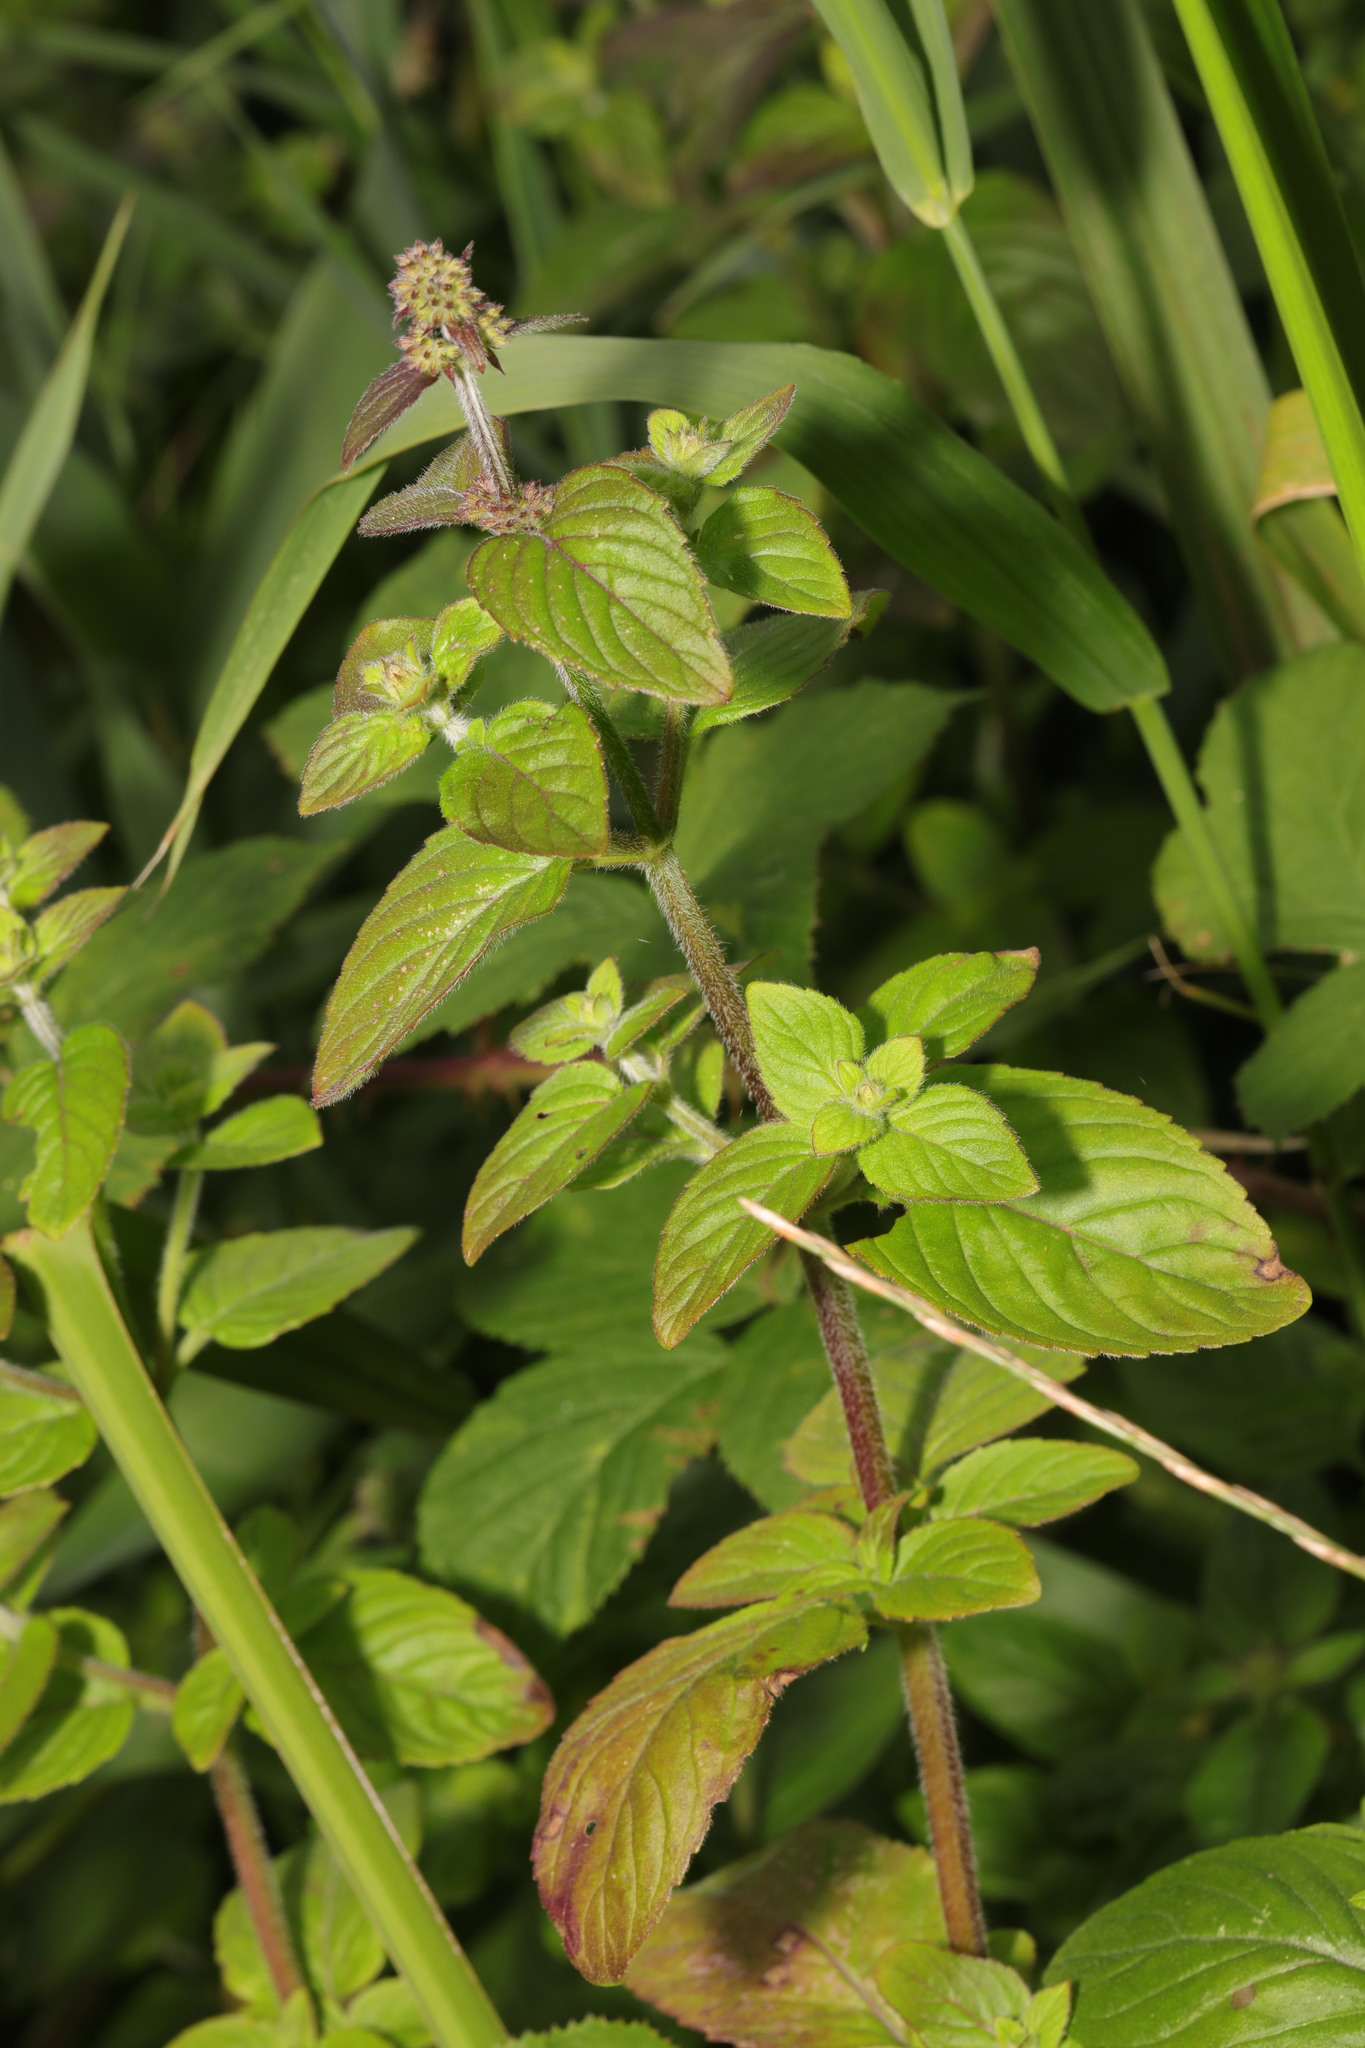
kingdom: Plantae
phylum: Tracheophyta
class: Magnoliopsida
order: Lamiales
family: Lamiaceae
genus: Mentha
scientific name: Mentha aquatica
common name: Water mint
